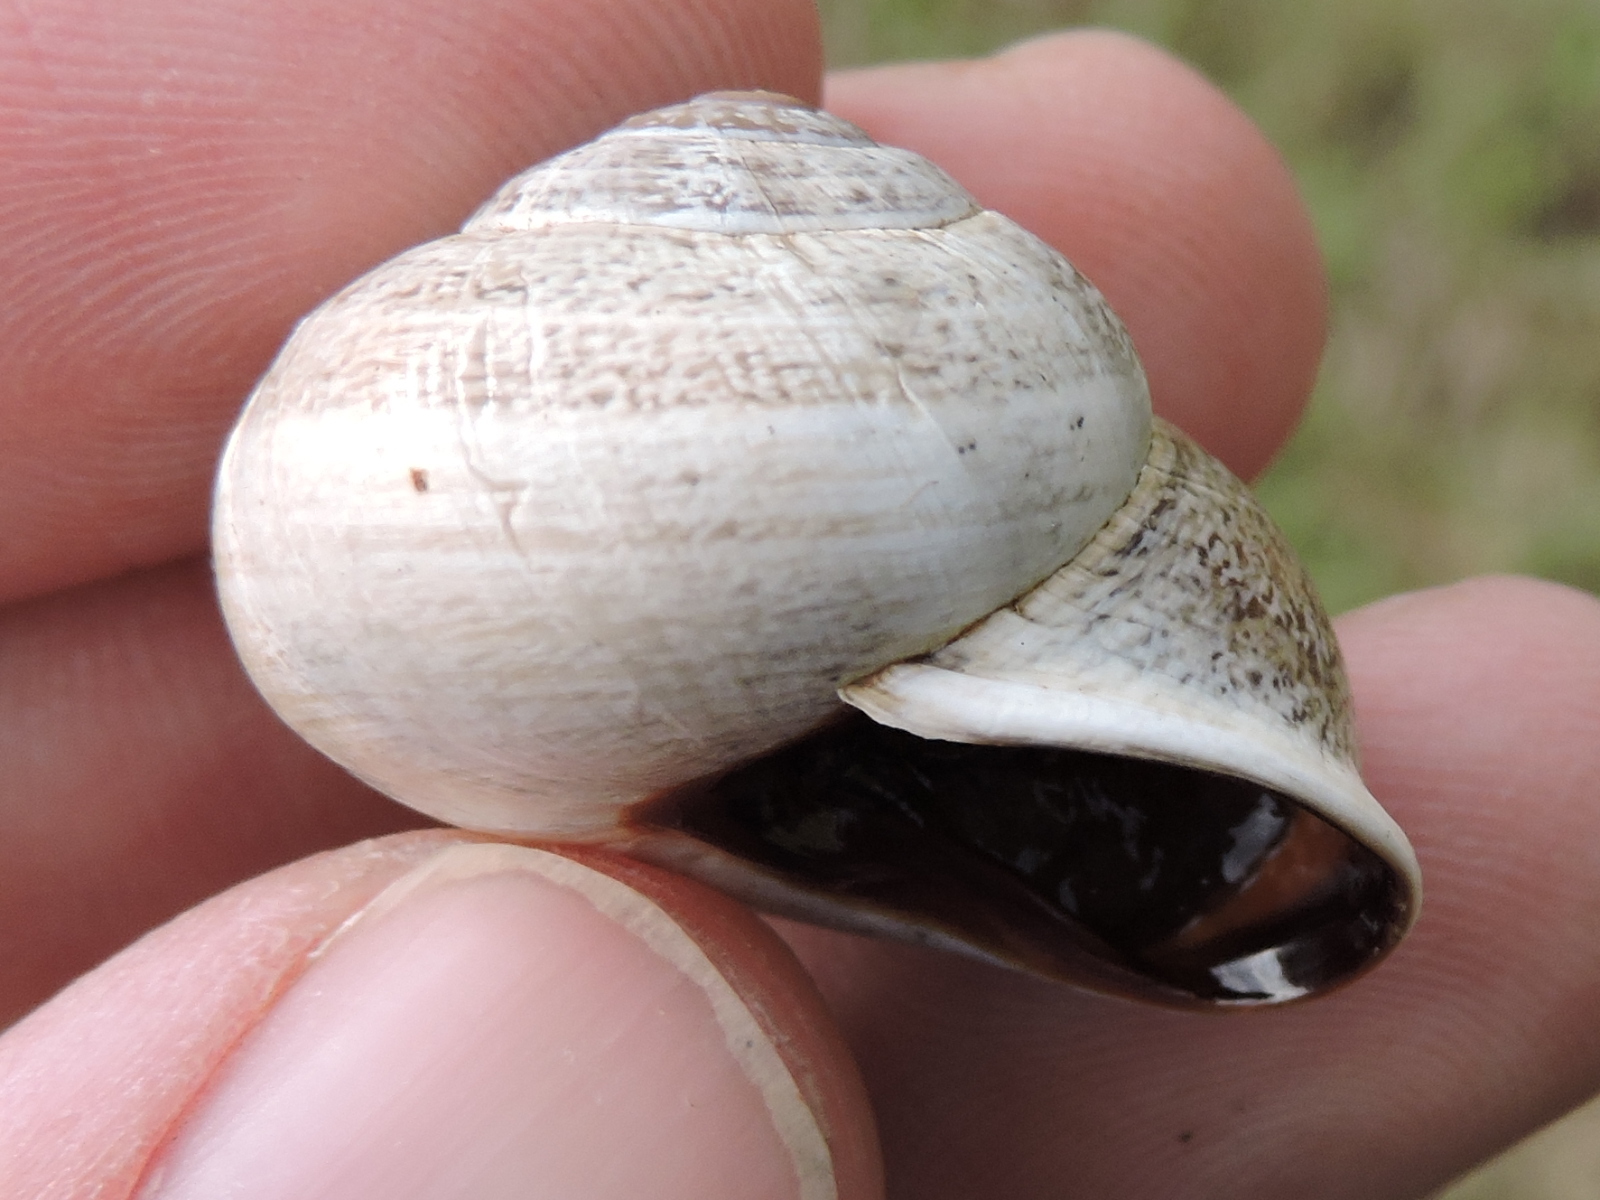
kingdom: Animalia
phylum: Mollusca
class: Gastropoda
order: Stylommatophora
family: Helicidae
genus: Otala
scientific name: Otala lactea
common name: Milk snail
